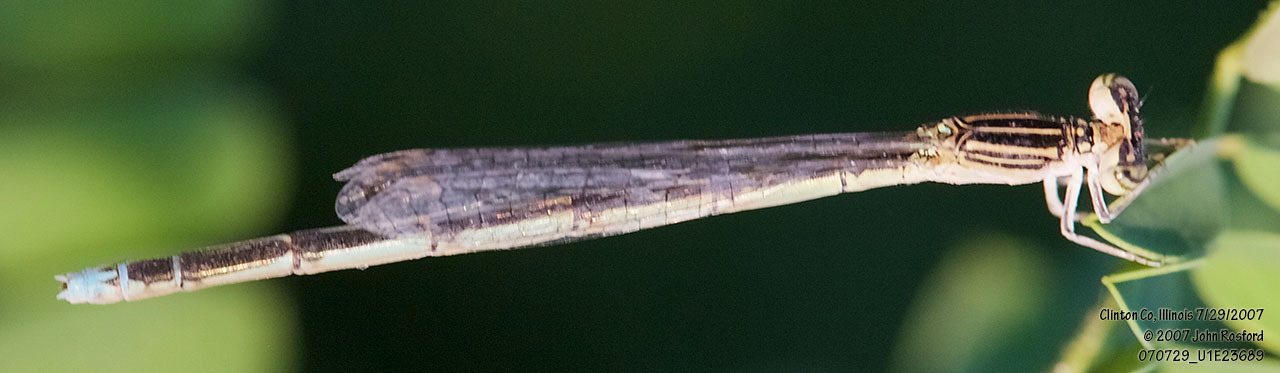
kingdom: Animalia
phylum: Arthropoda
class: Insecta
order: Odonata
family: Coenagrionidae
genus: Enallagma
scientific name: Enallagma basidens
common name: Double-striped bluet
